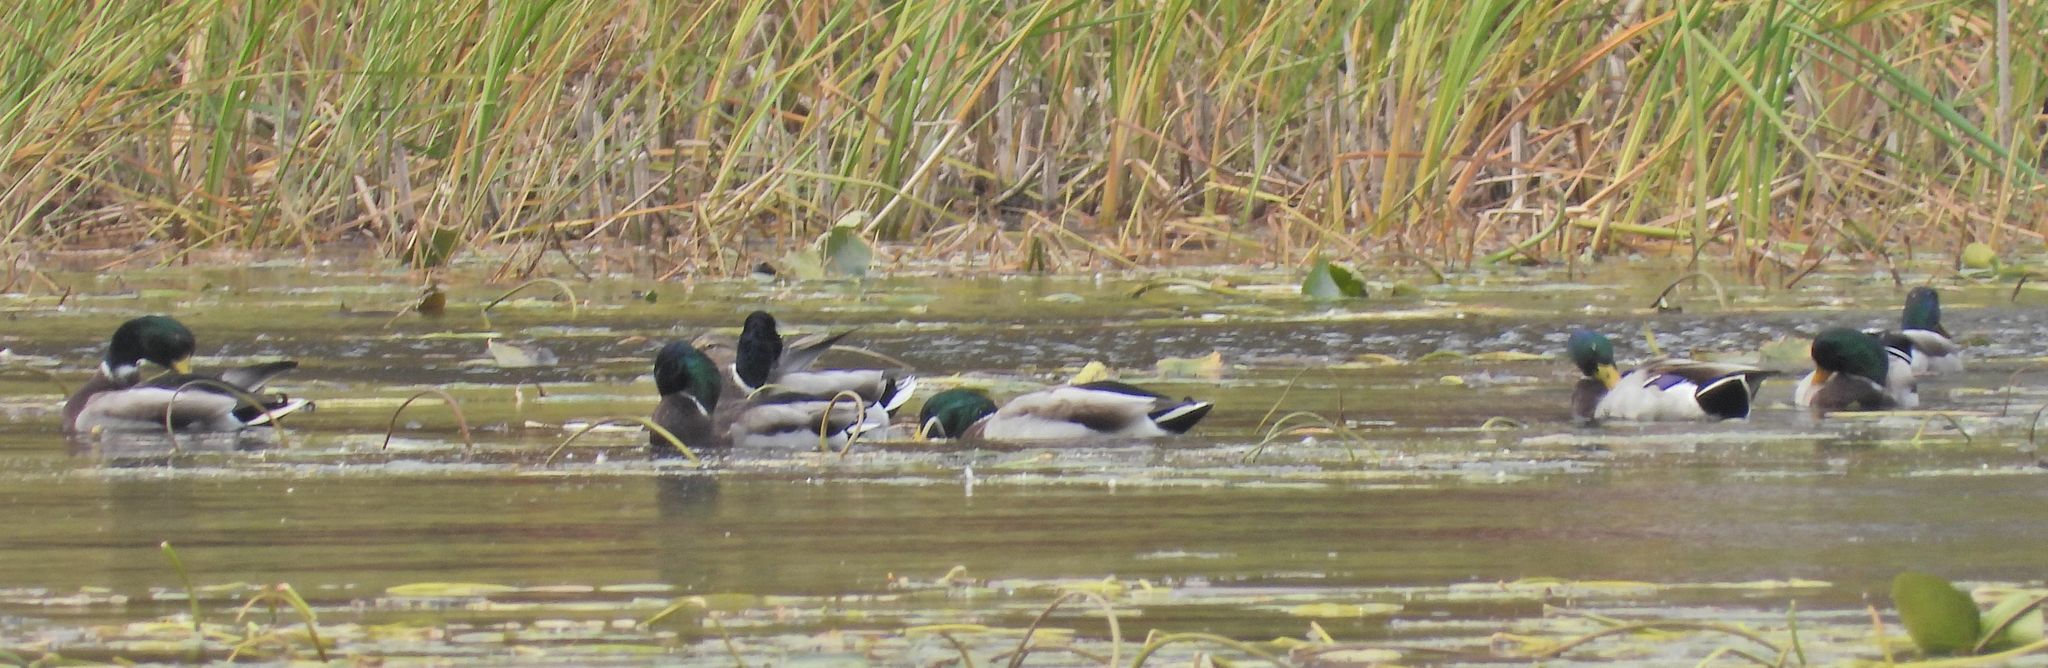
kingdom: Animalia
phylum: Chordata
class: Aves
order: Anseriformes
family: Anatidae
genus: Anas
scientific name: Anas platyrhynchos
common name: Mallard
